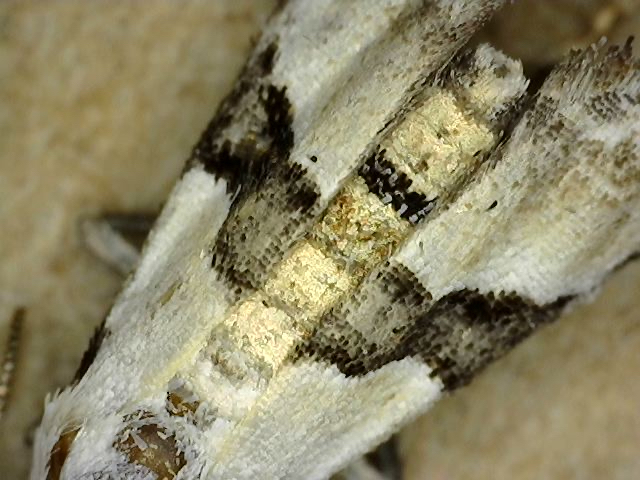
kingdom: Animalia
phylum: Arthropoda
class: Insecta
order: Lepidoptera
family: Noctuidae
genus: Nigetia
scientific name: Nigetia formosalis
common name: Thin-winged owlet
